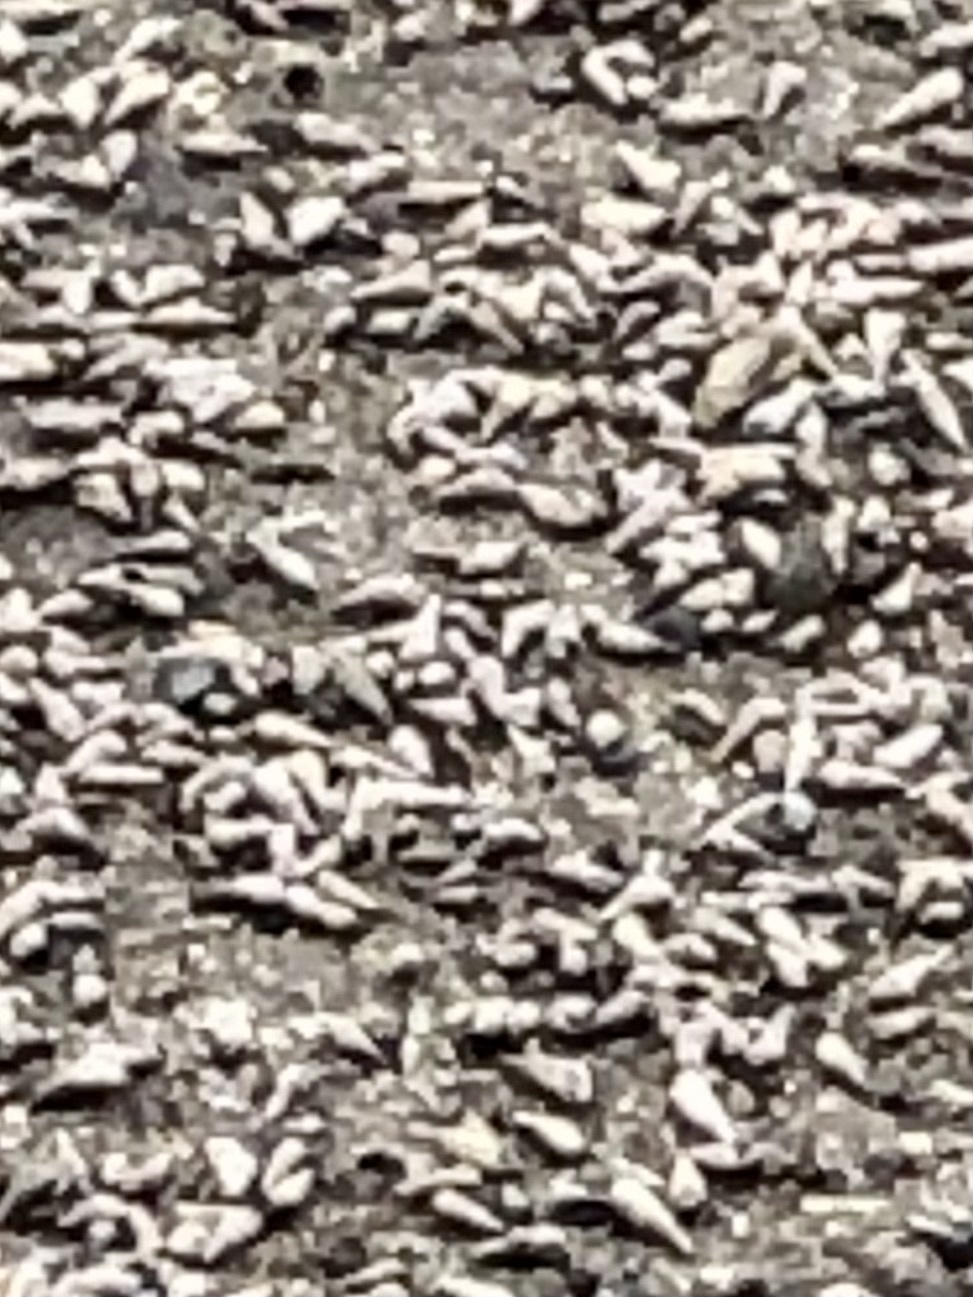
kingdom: Animalia
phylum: Mollusca
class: Gastropoda
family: Batillariidae
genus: Batillaria
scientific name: Batillaria attramentaria
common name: Japanese false cerith
